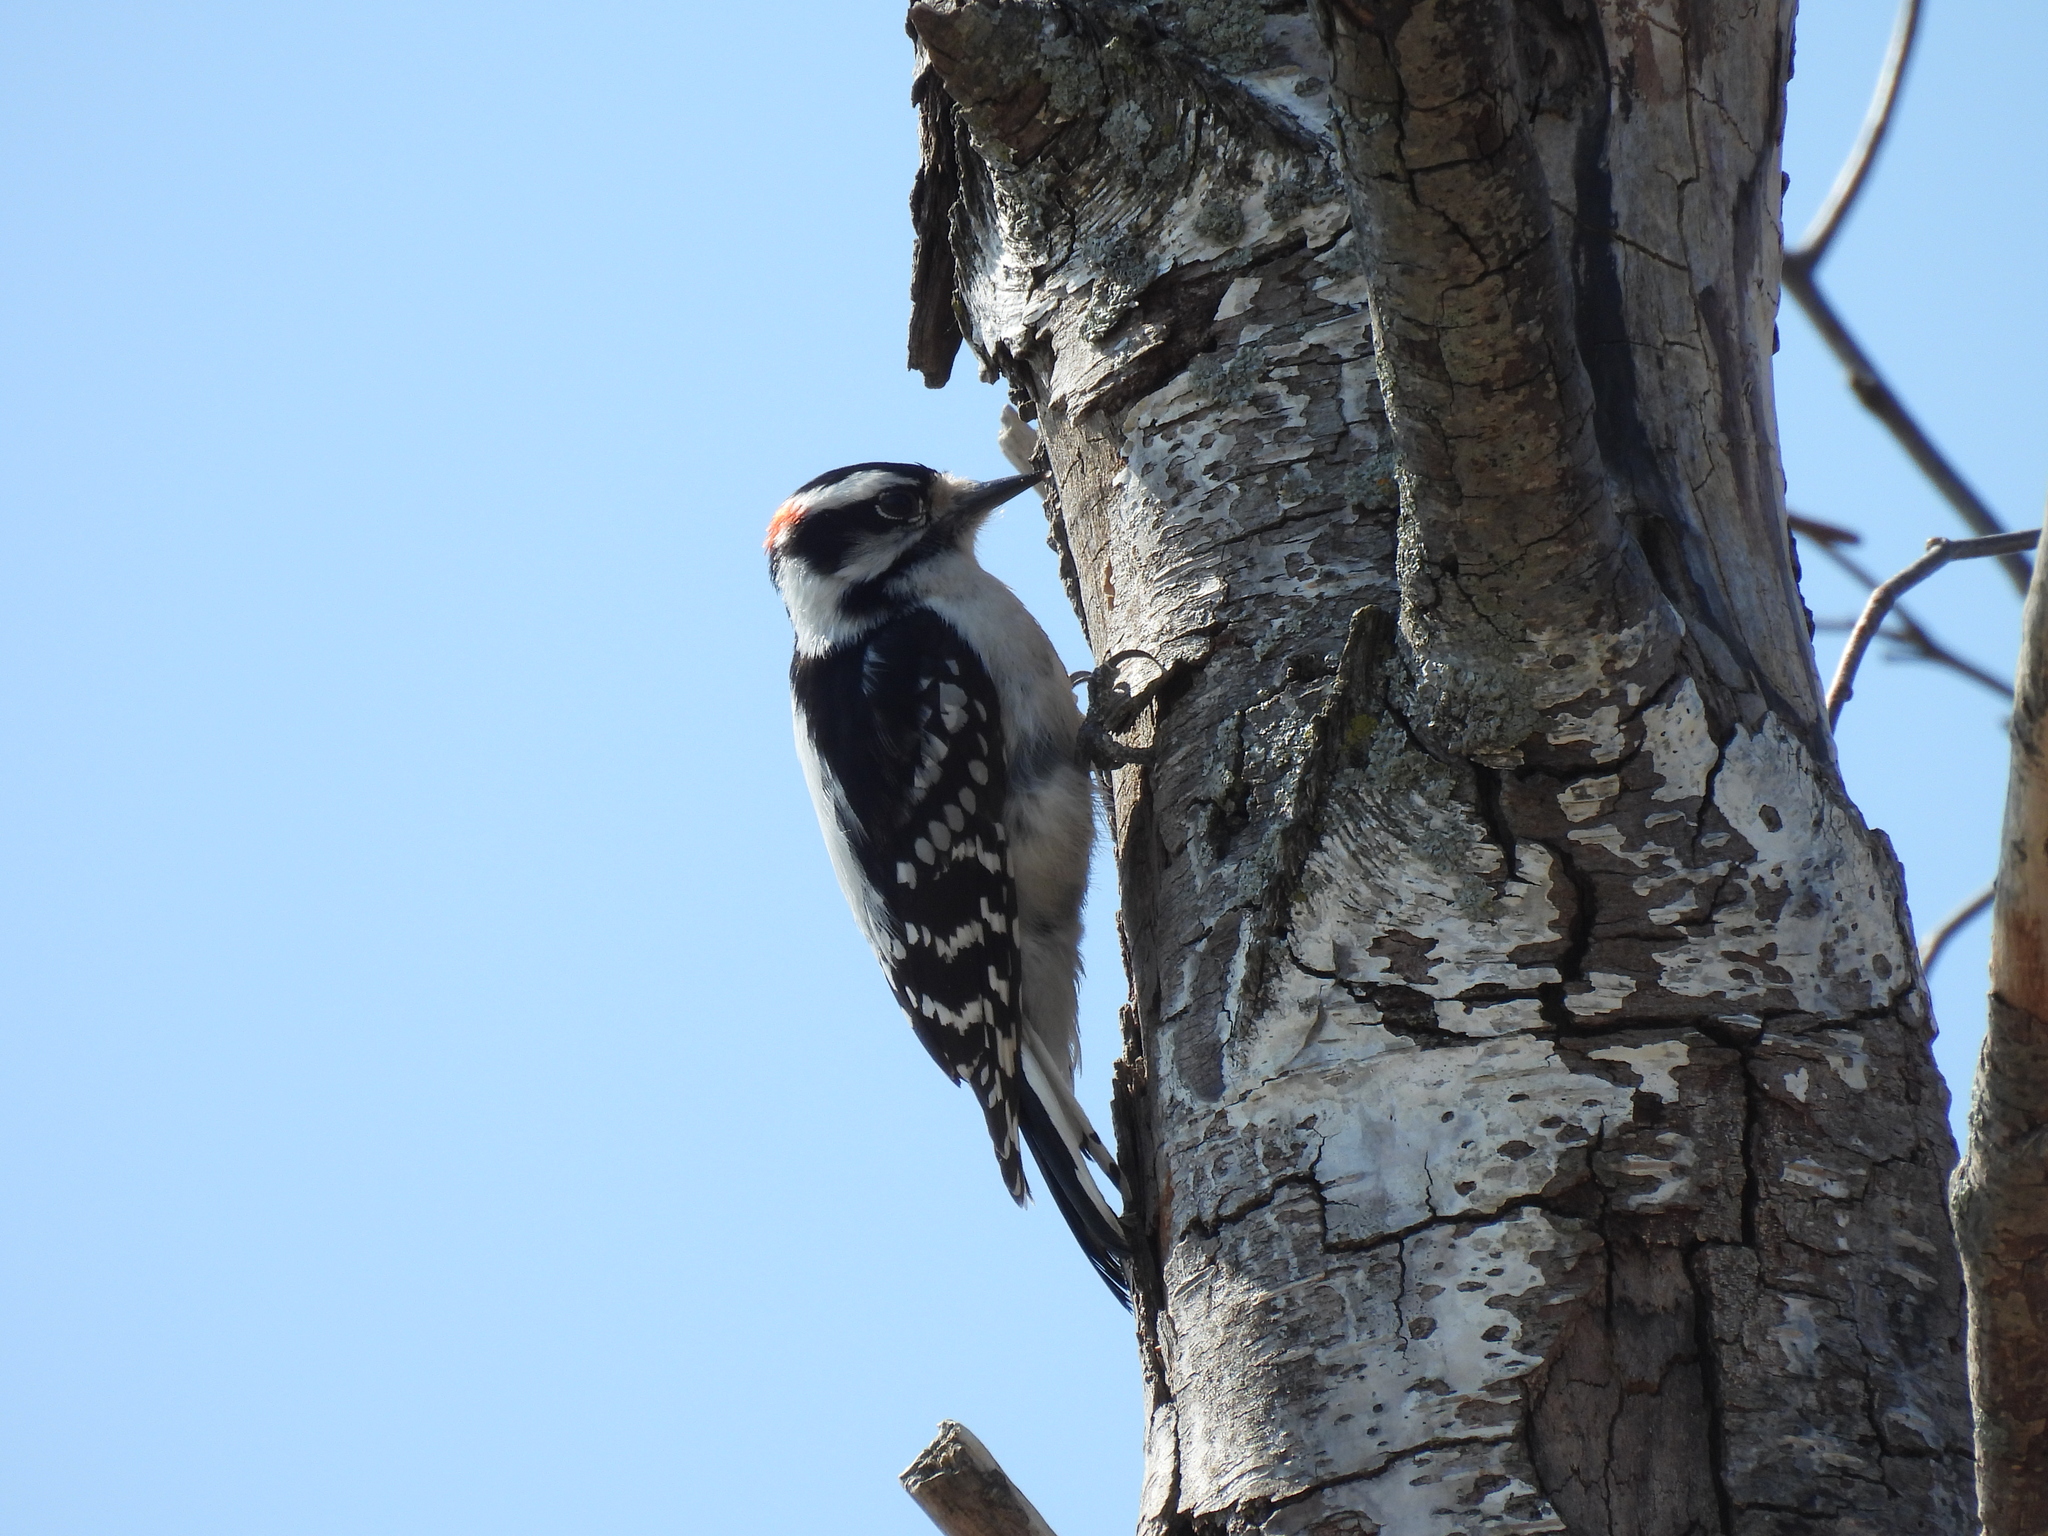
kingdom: Animalia
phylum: Chordata
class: Aves
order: Piciformes
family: Picidae
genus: Dryobates
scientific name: Dryobates pubescens
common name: Downy woodpecker
